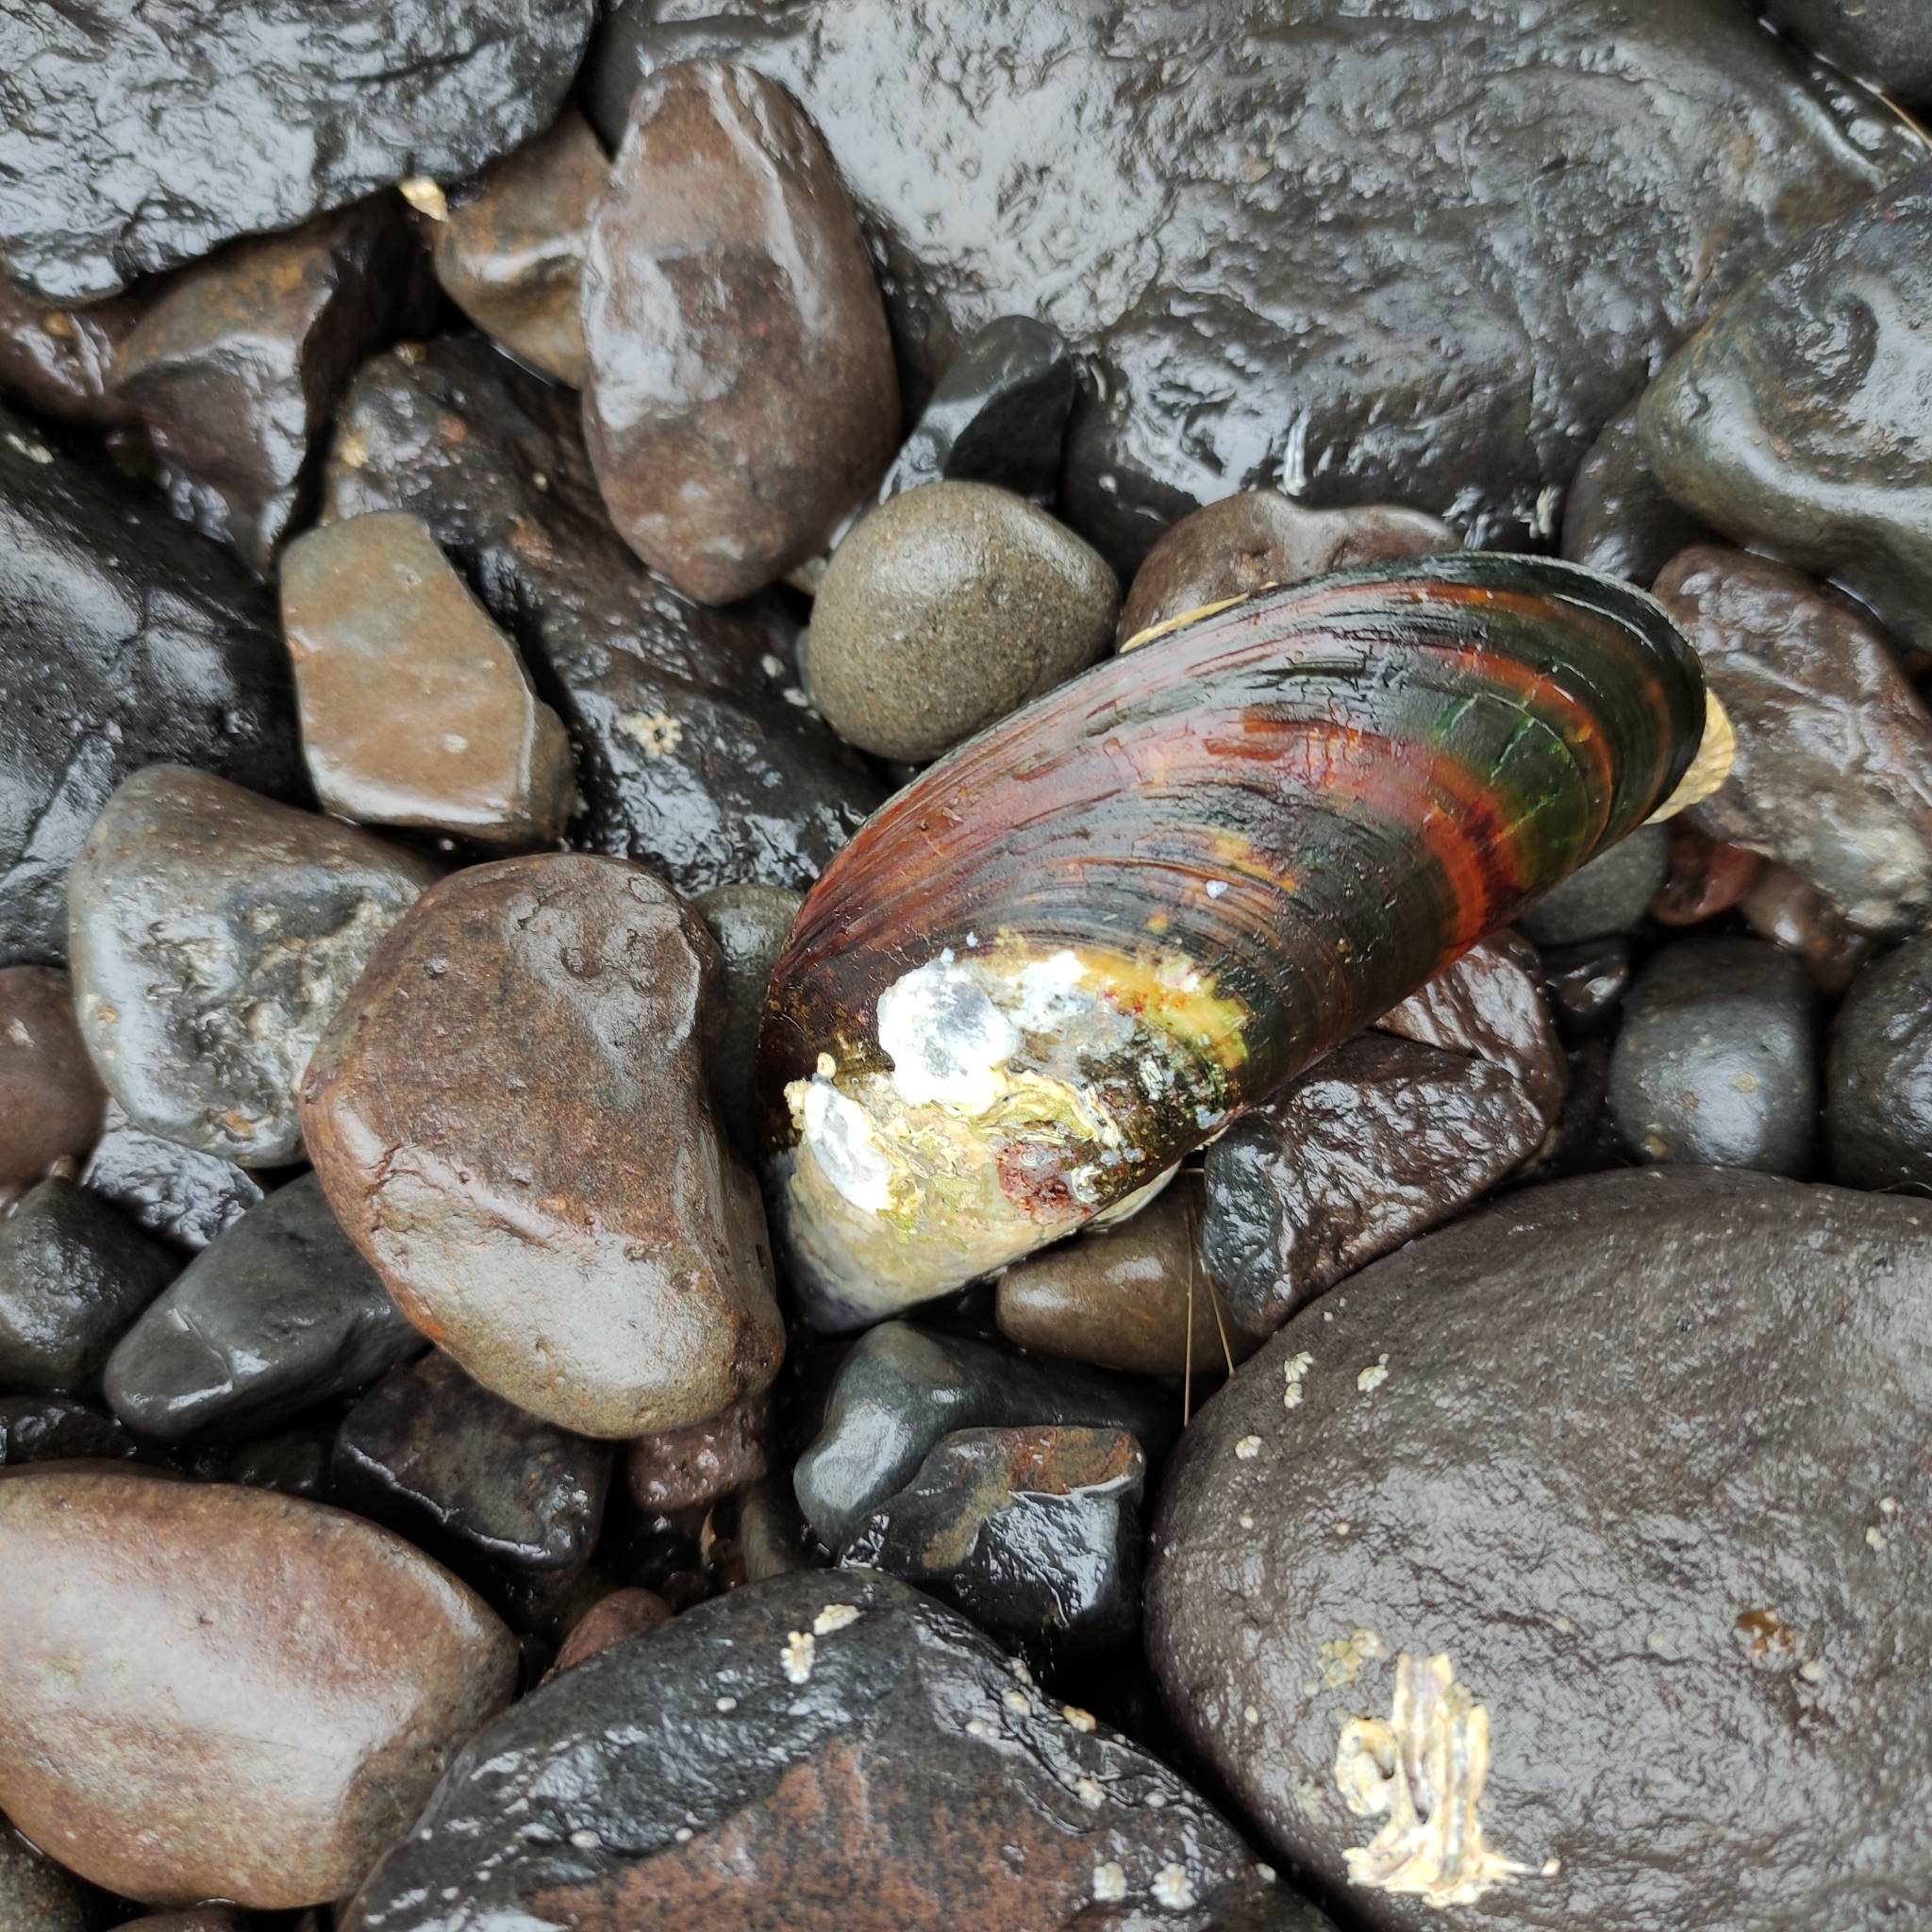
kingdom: Animalia
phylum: Mollusca
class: Bivalvia
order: Mytilida
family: Mytilidae
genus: Perna
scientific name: Perna canaliculus
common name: New zealand greenshelltm
